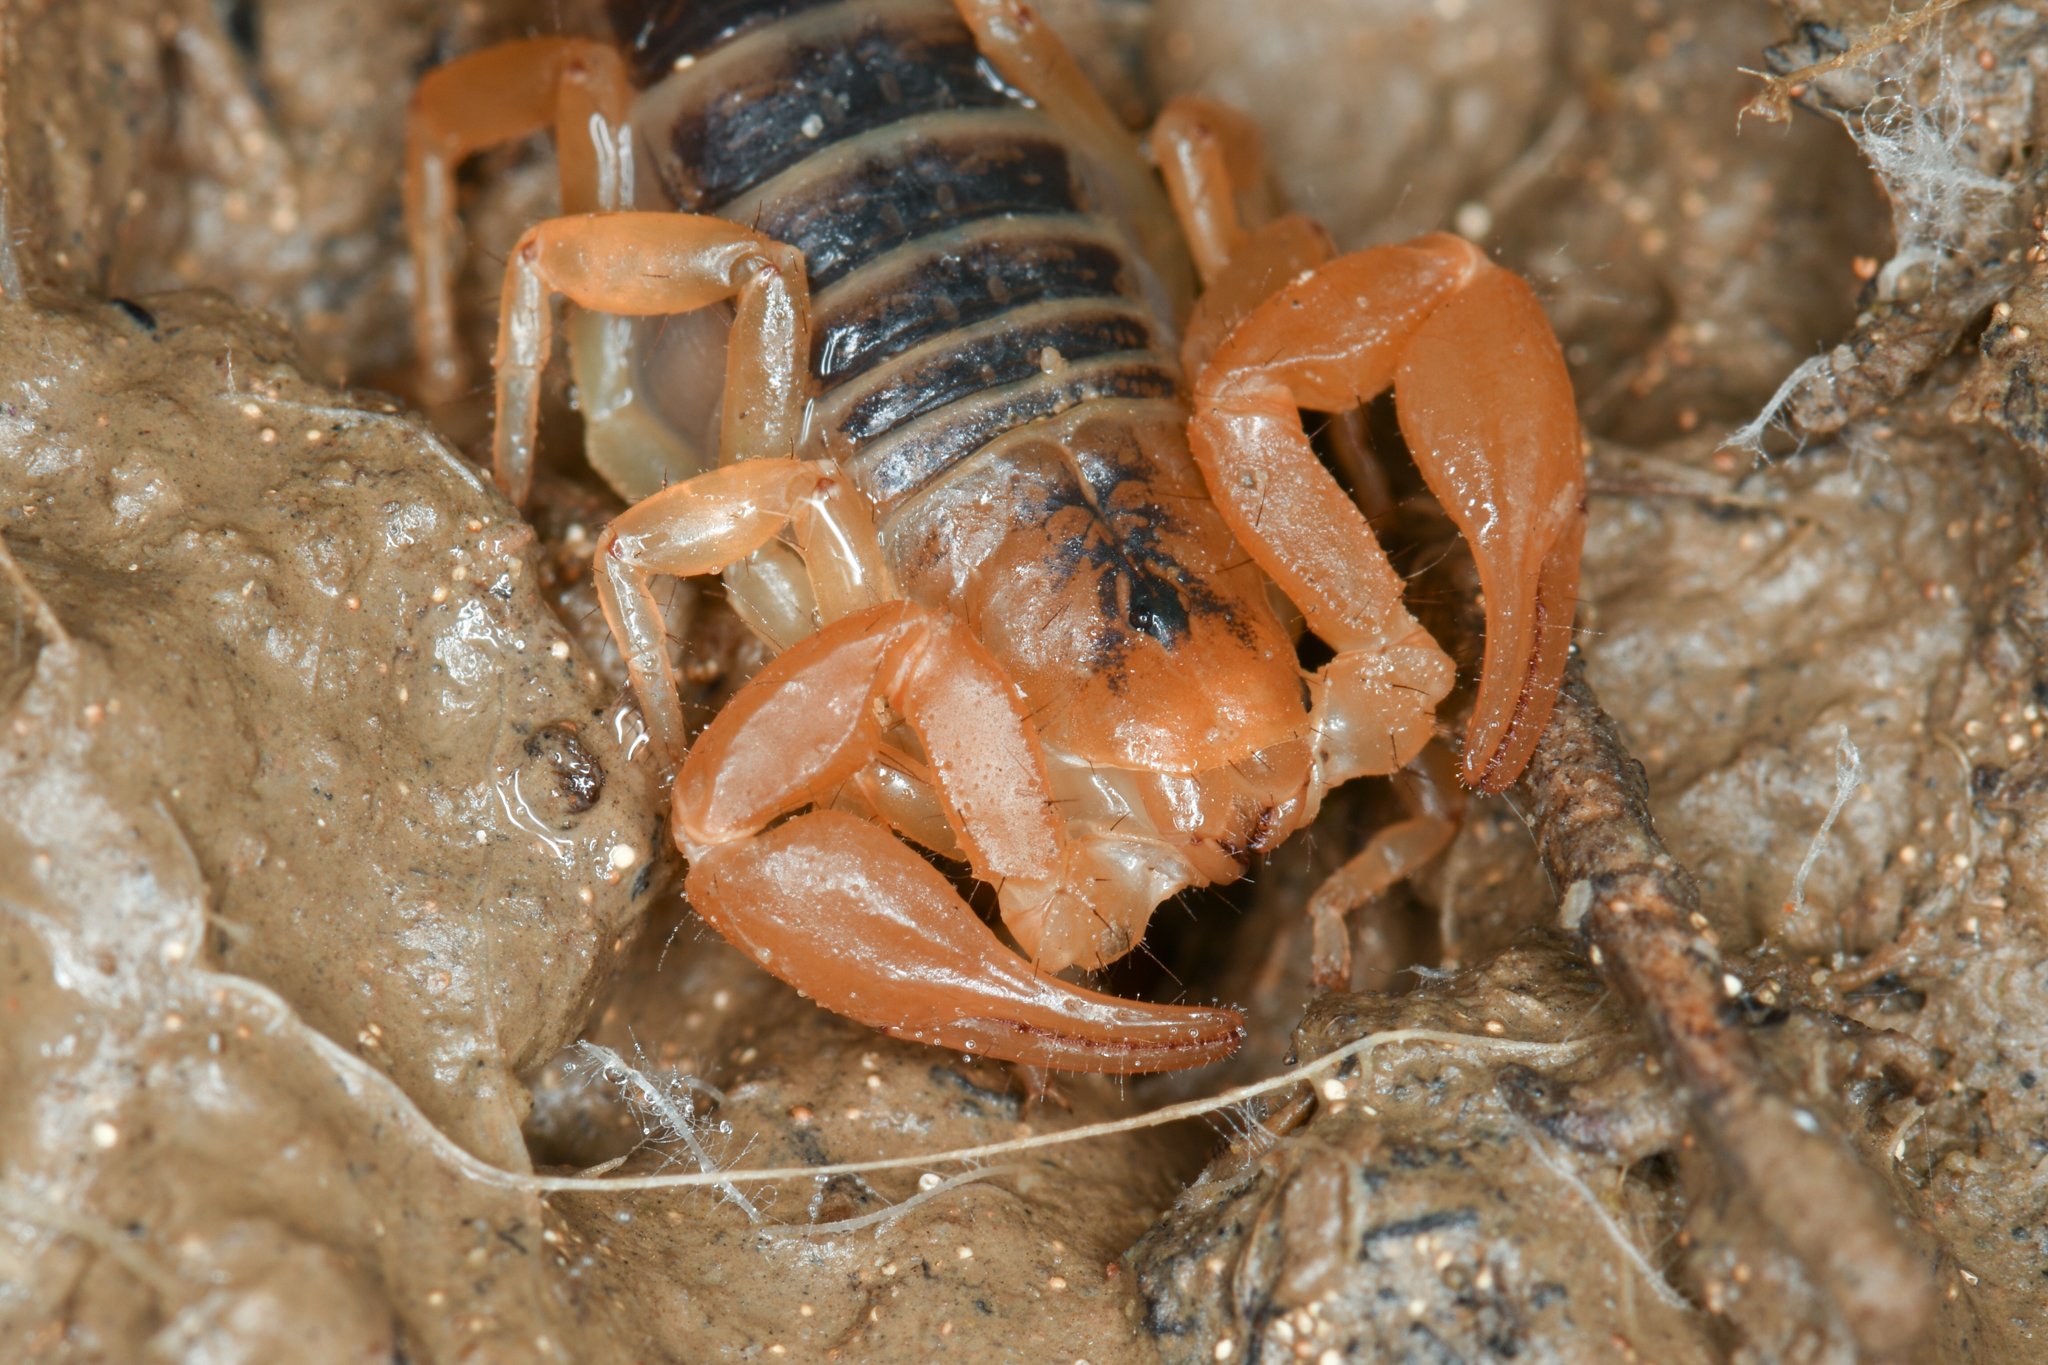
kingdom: Animalia
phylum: Arthropoda
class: Arachnida
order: Scorpiones
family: Vaejovidae
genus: Paruroctonus
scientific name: Paruroctonus soda
